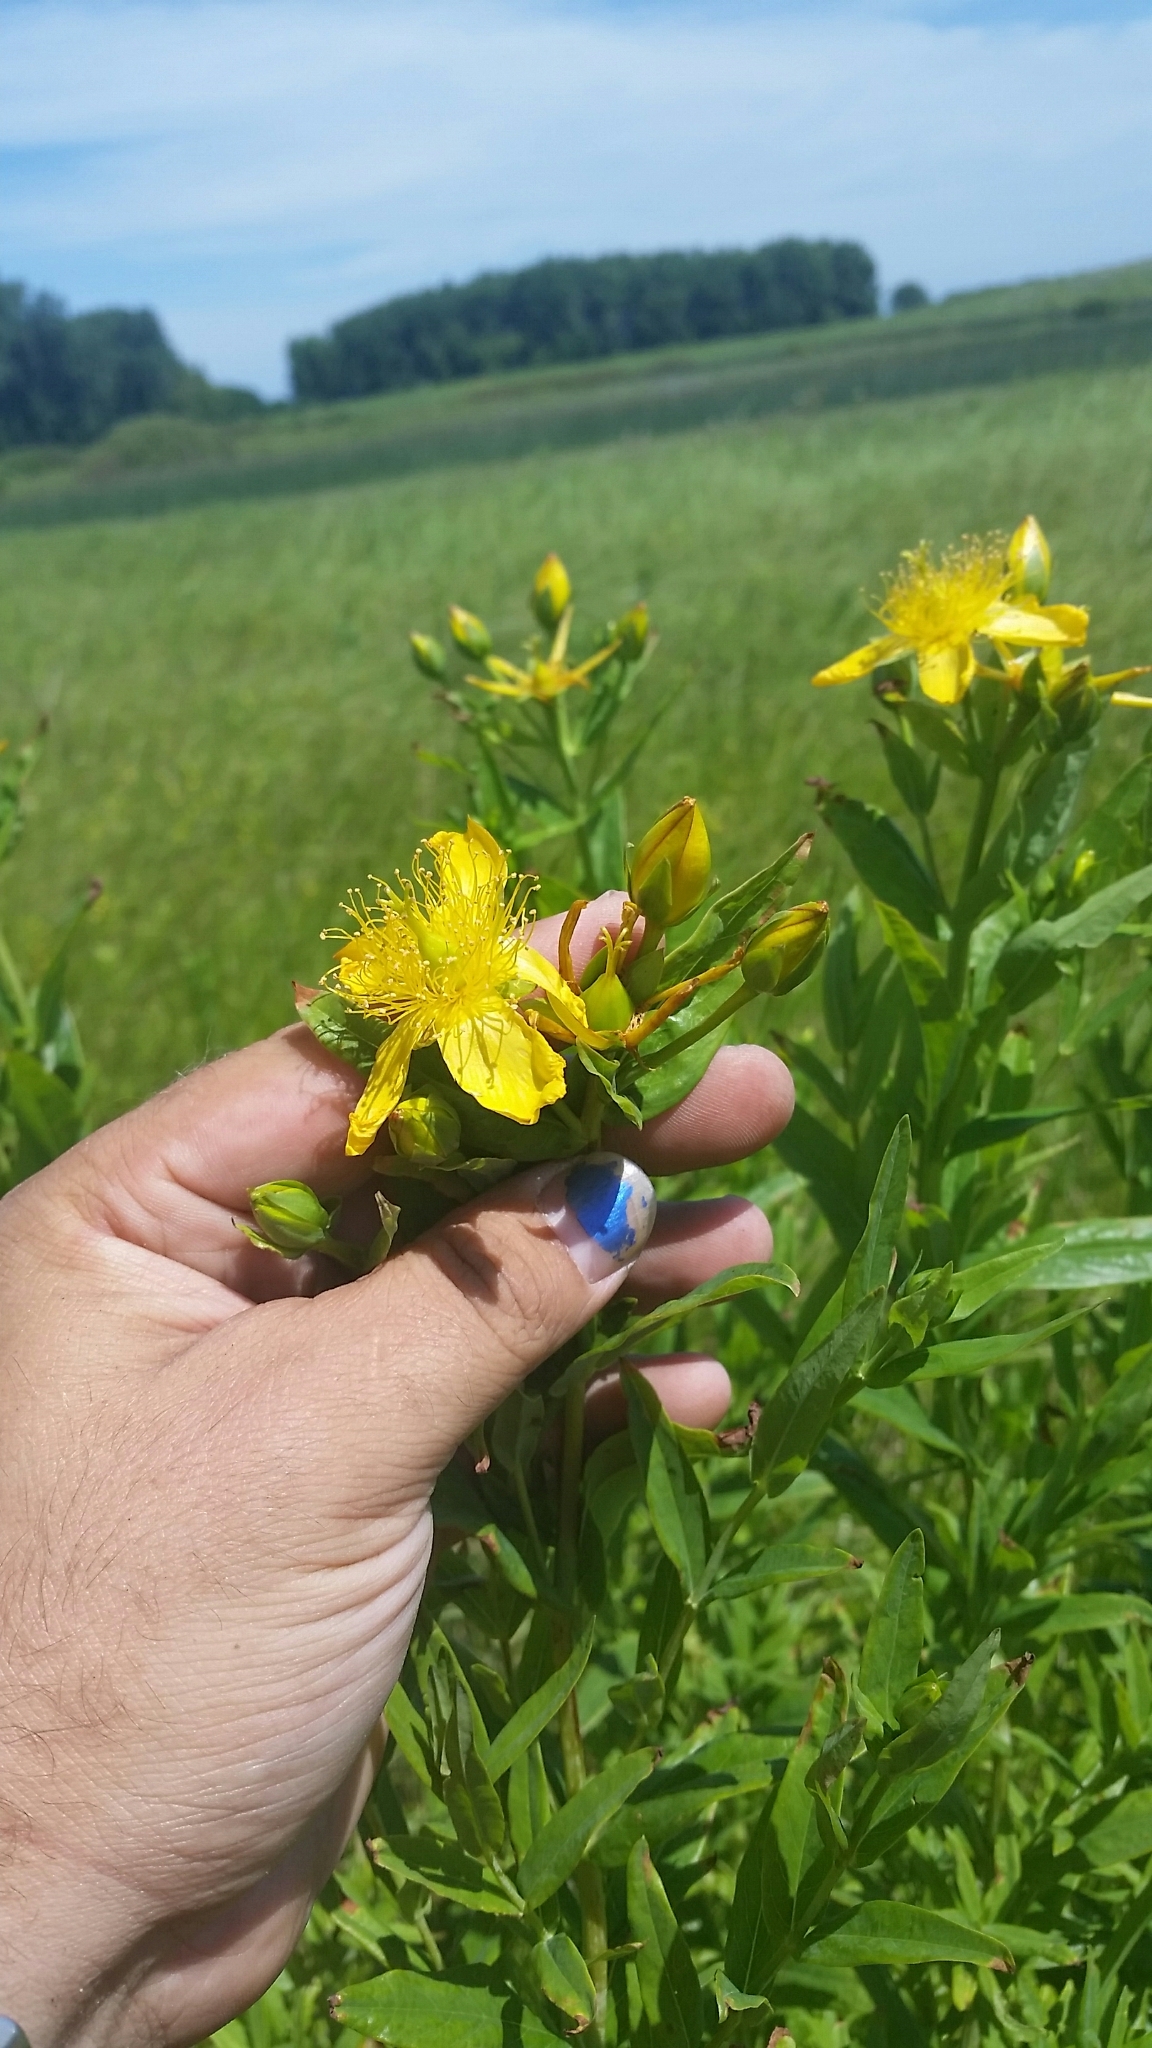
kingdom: Plantae
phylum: Tracheophyta
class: Magnoliopsida
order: Malpighiales
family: Hypericaceae
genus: Hypericum
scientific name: Hypericum ascyron
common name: Giant st. john's-wort
